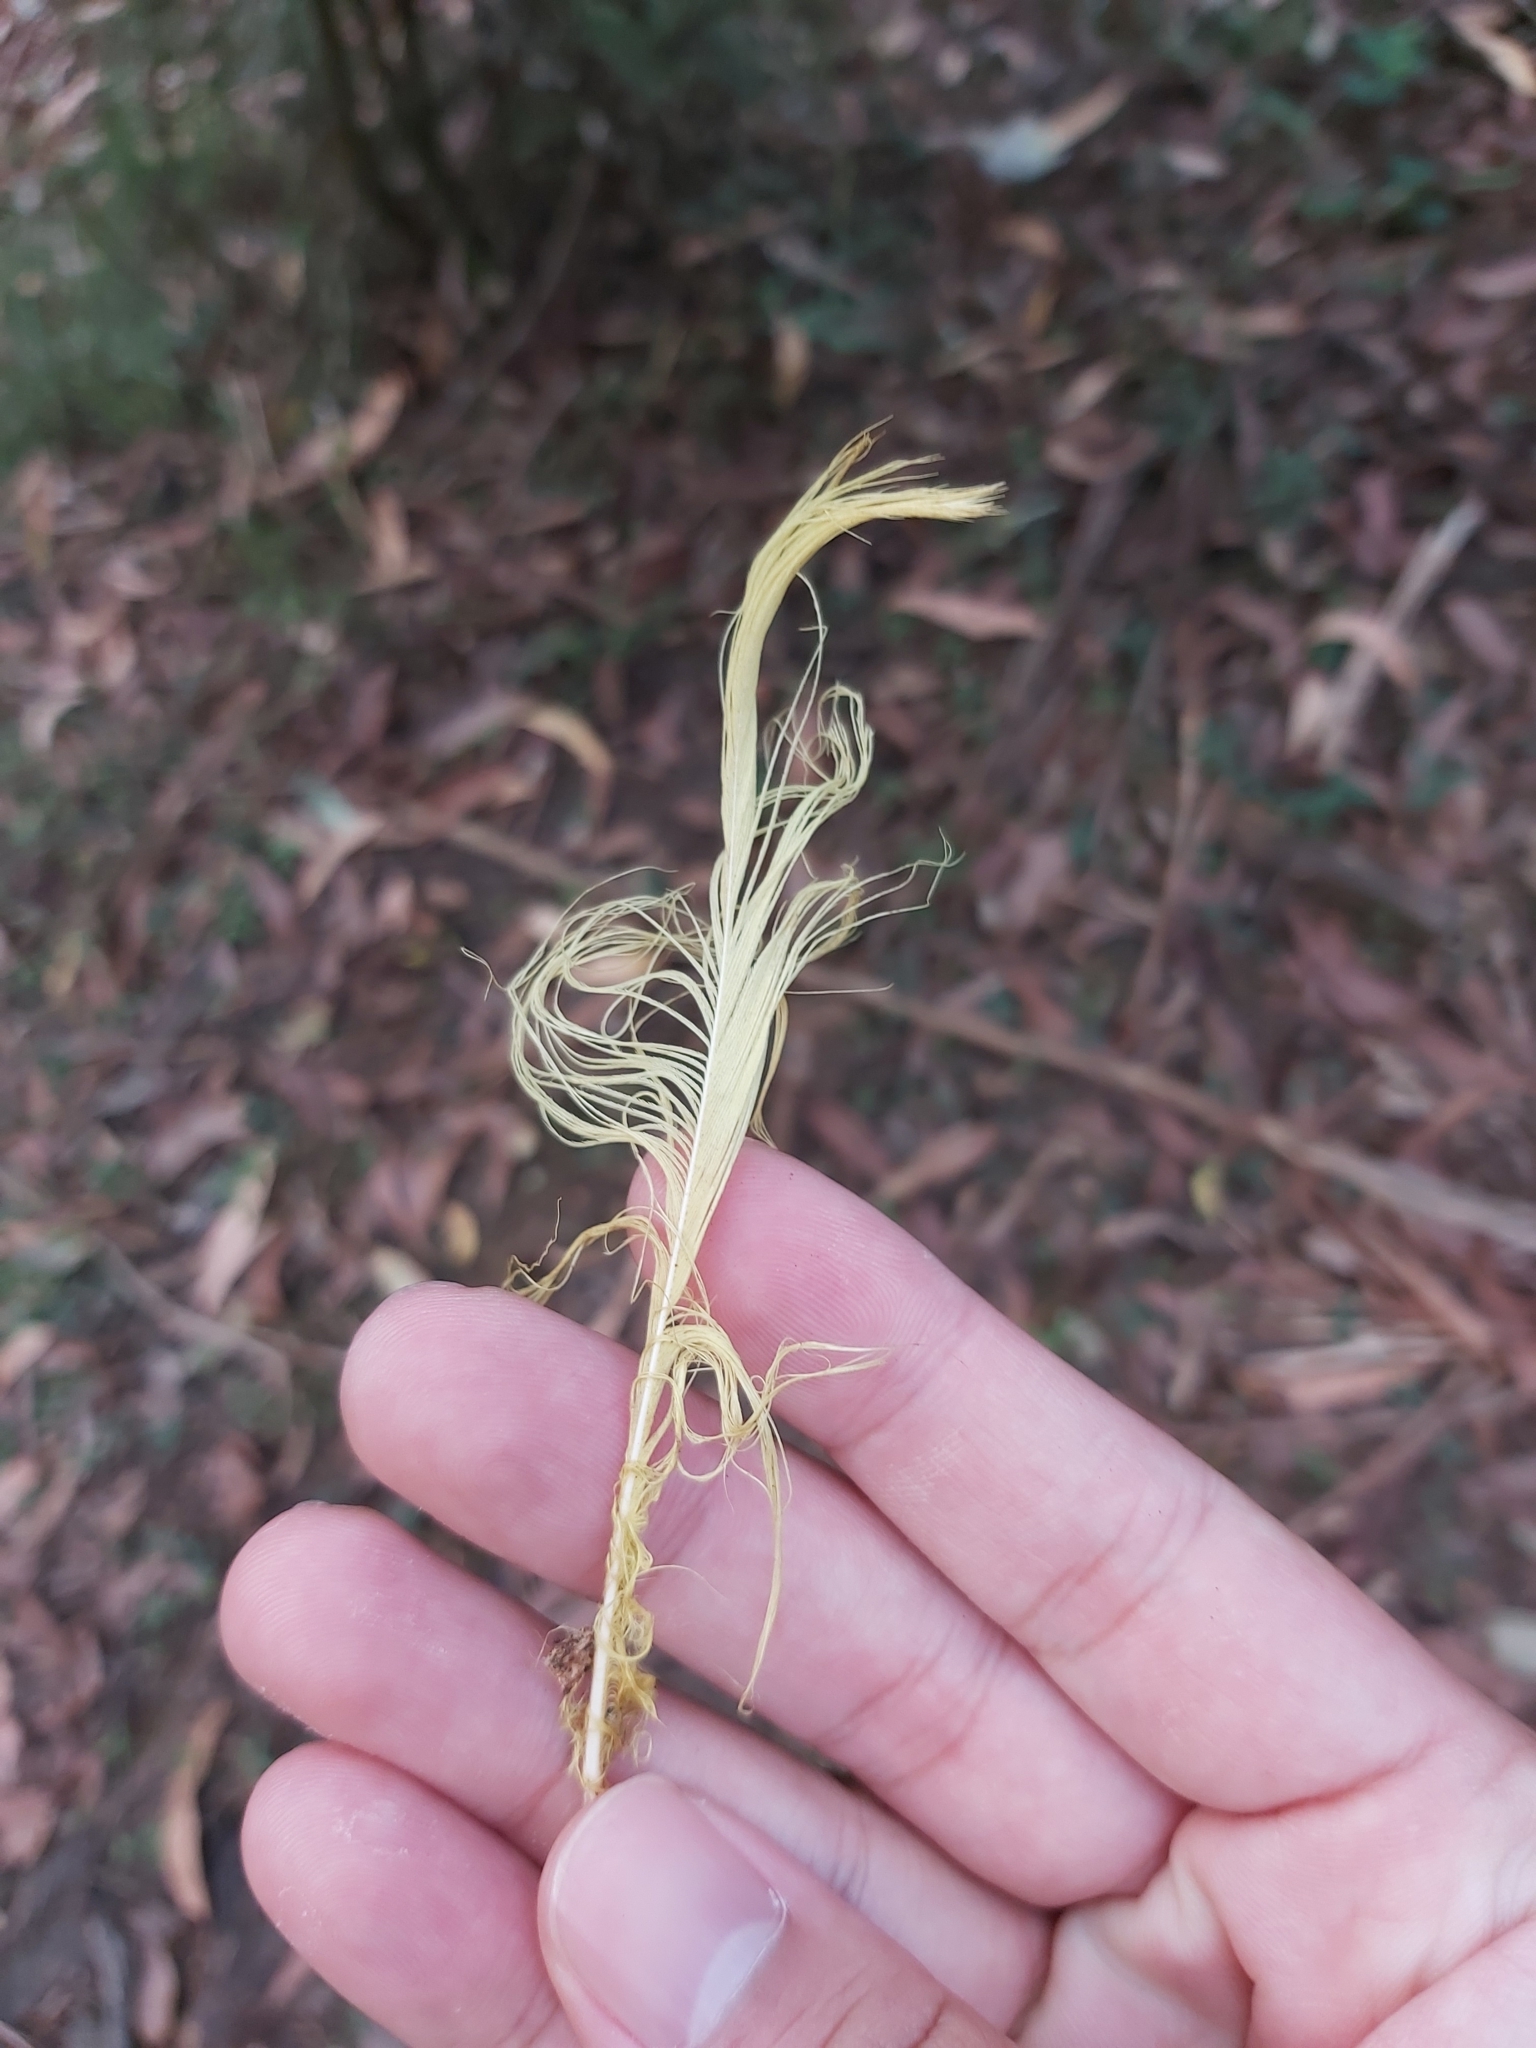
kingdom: Animalia
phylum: Chordata
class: Aves
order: Psittaciformes
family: Psittacidae
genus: Cacatua
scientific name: Cacatua galerita
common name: Sulphur-crested cockatoo
